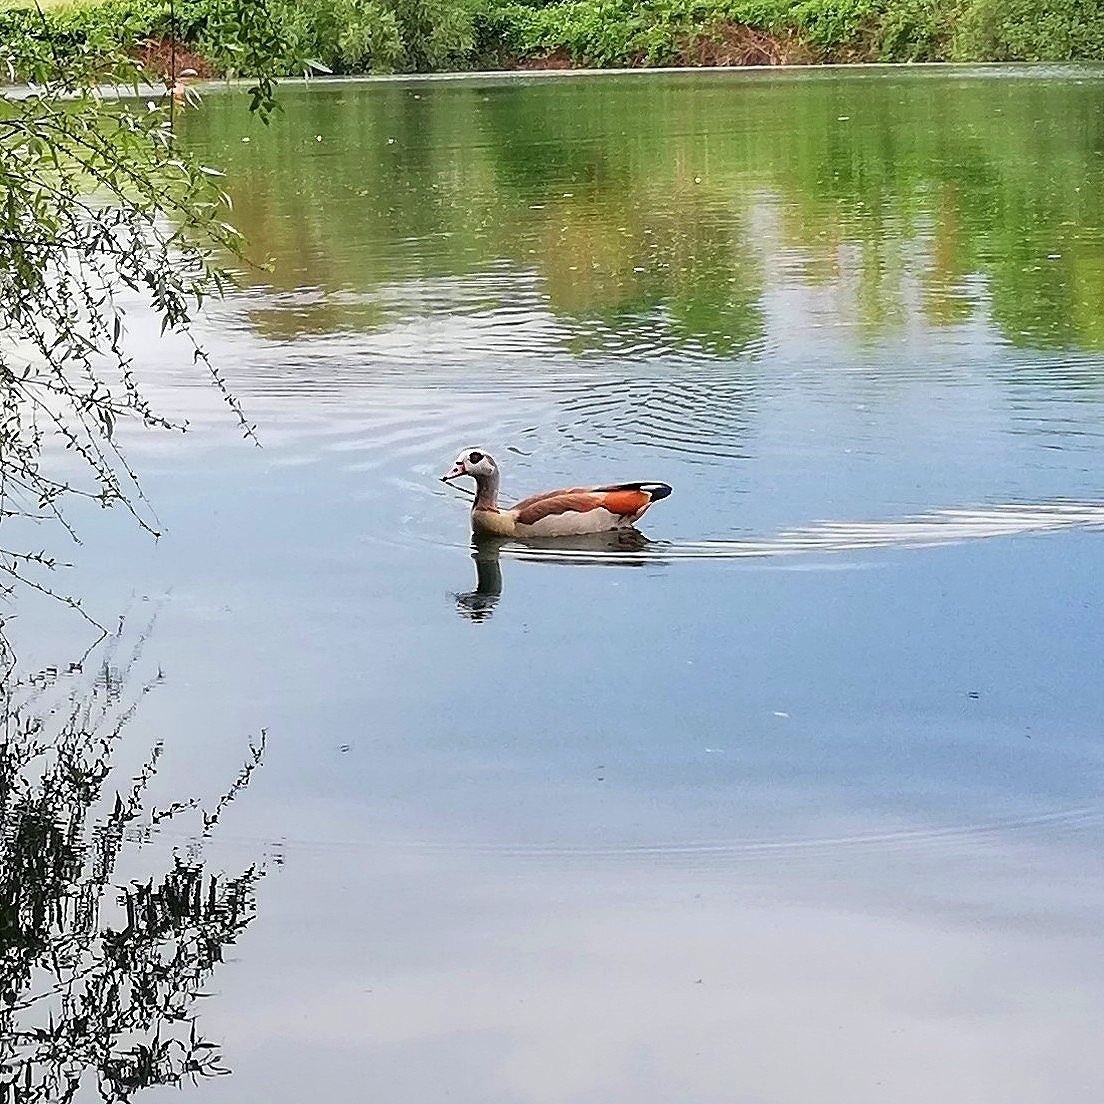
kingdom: Animalia
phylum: Chordata
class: Aves
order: Anseriformes
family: Anatidae
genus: Alopochen
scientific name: Alopochen aegyptiaca
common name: Egyptian goose
